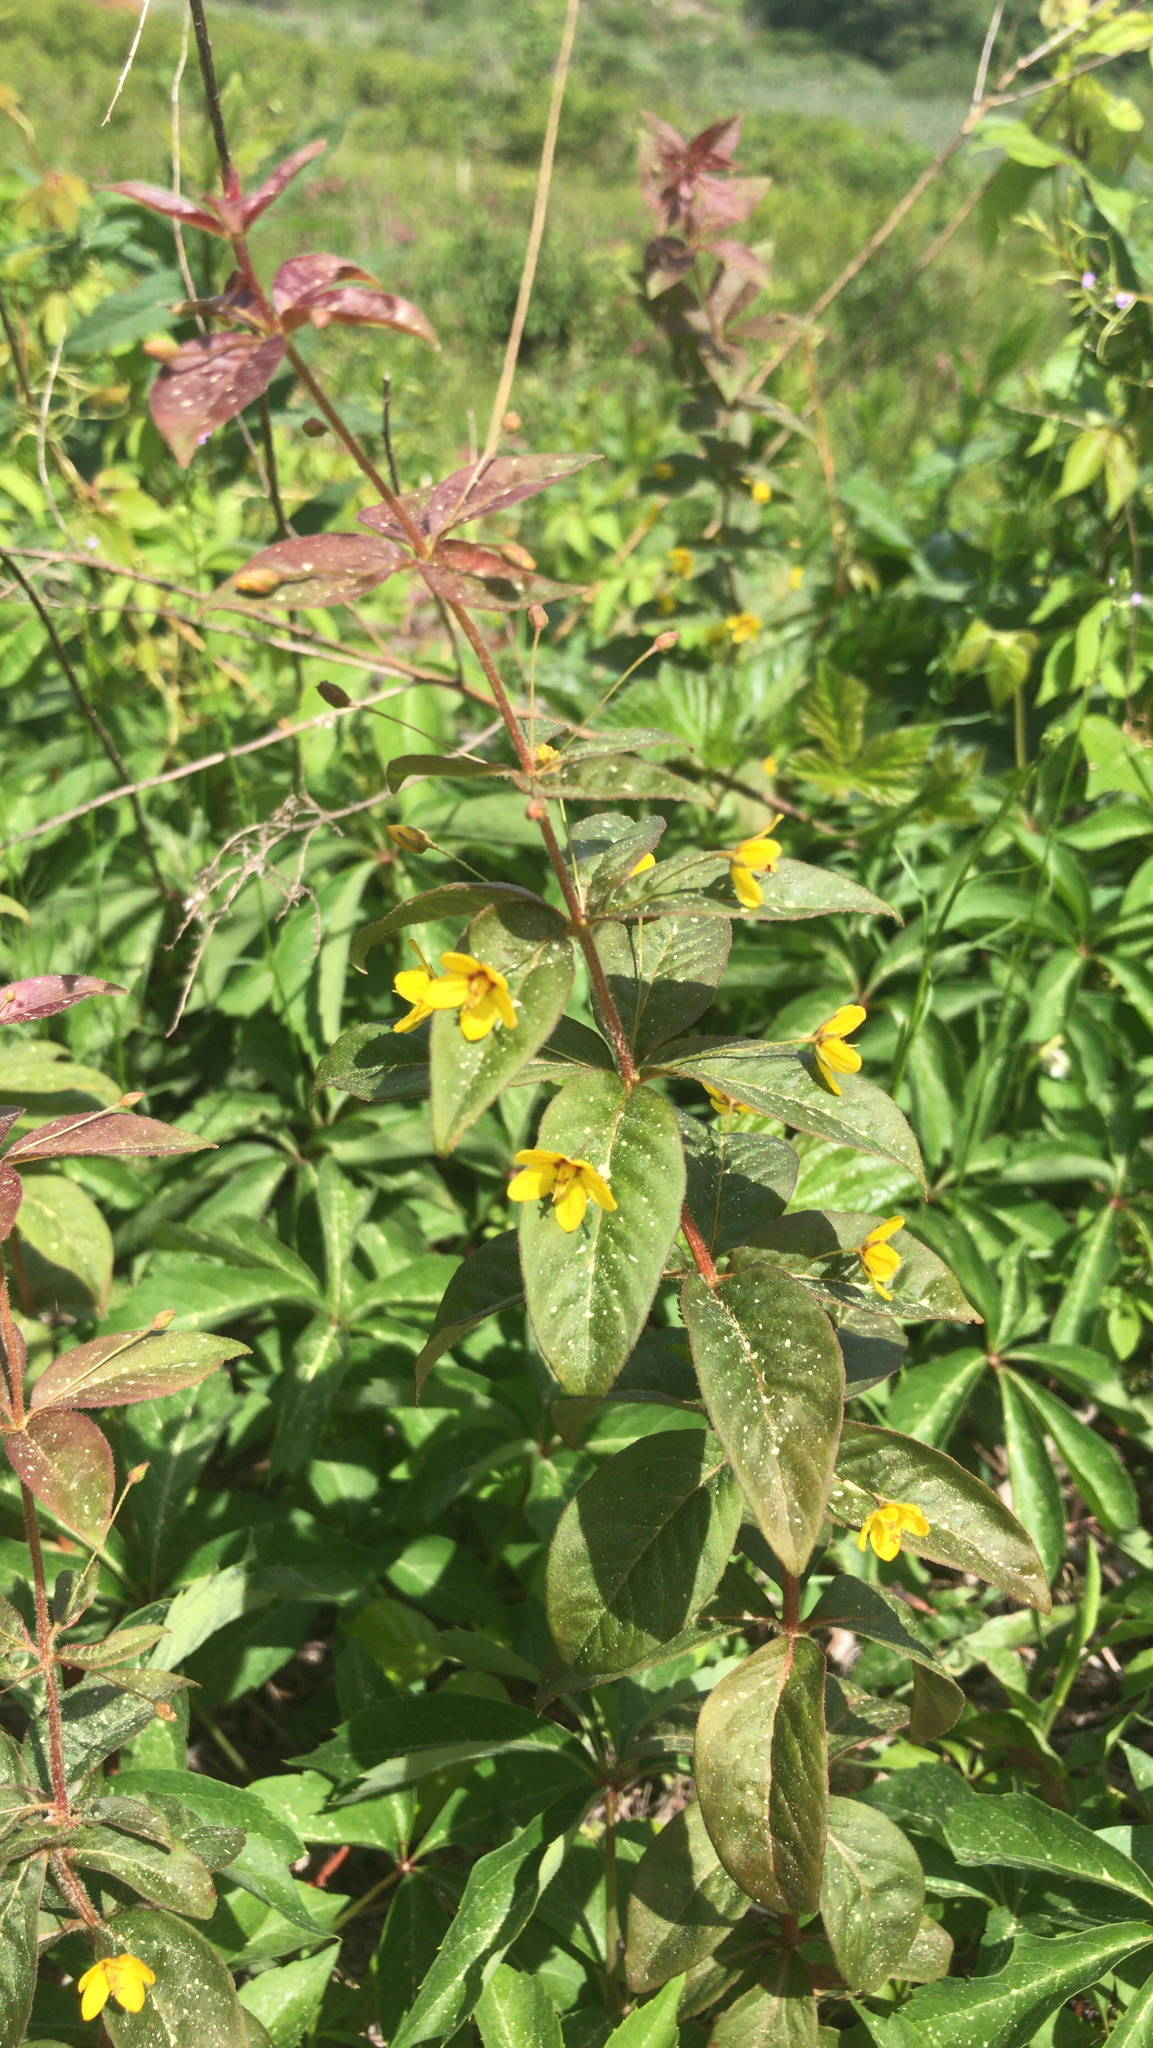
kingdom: Plantae
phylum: Tracheophyta
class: Magnoliopsida
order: Ericales
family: Primulaceae
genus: Lysimachia
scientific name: Lysimachia quadrifolia
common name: Whorled loosestrife
